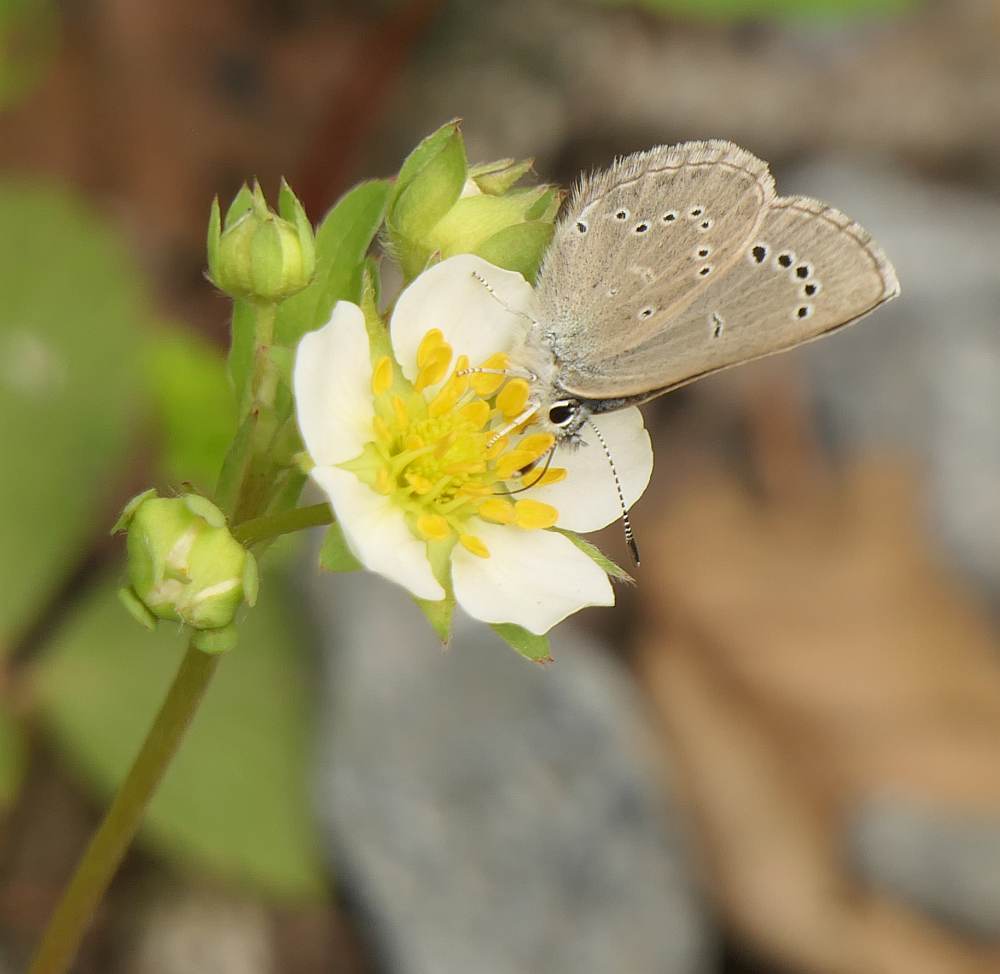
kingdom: Animalia
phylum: Arthropoda
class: Insecta
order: Lepidoptera
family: Lycaenidae
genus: Glaucopsyche
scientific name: Glaucopsyche lygdamus
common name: Silvery blue
